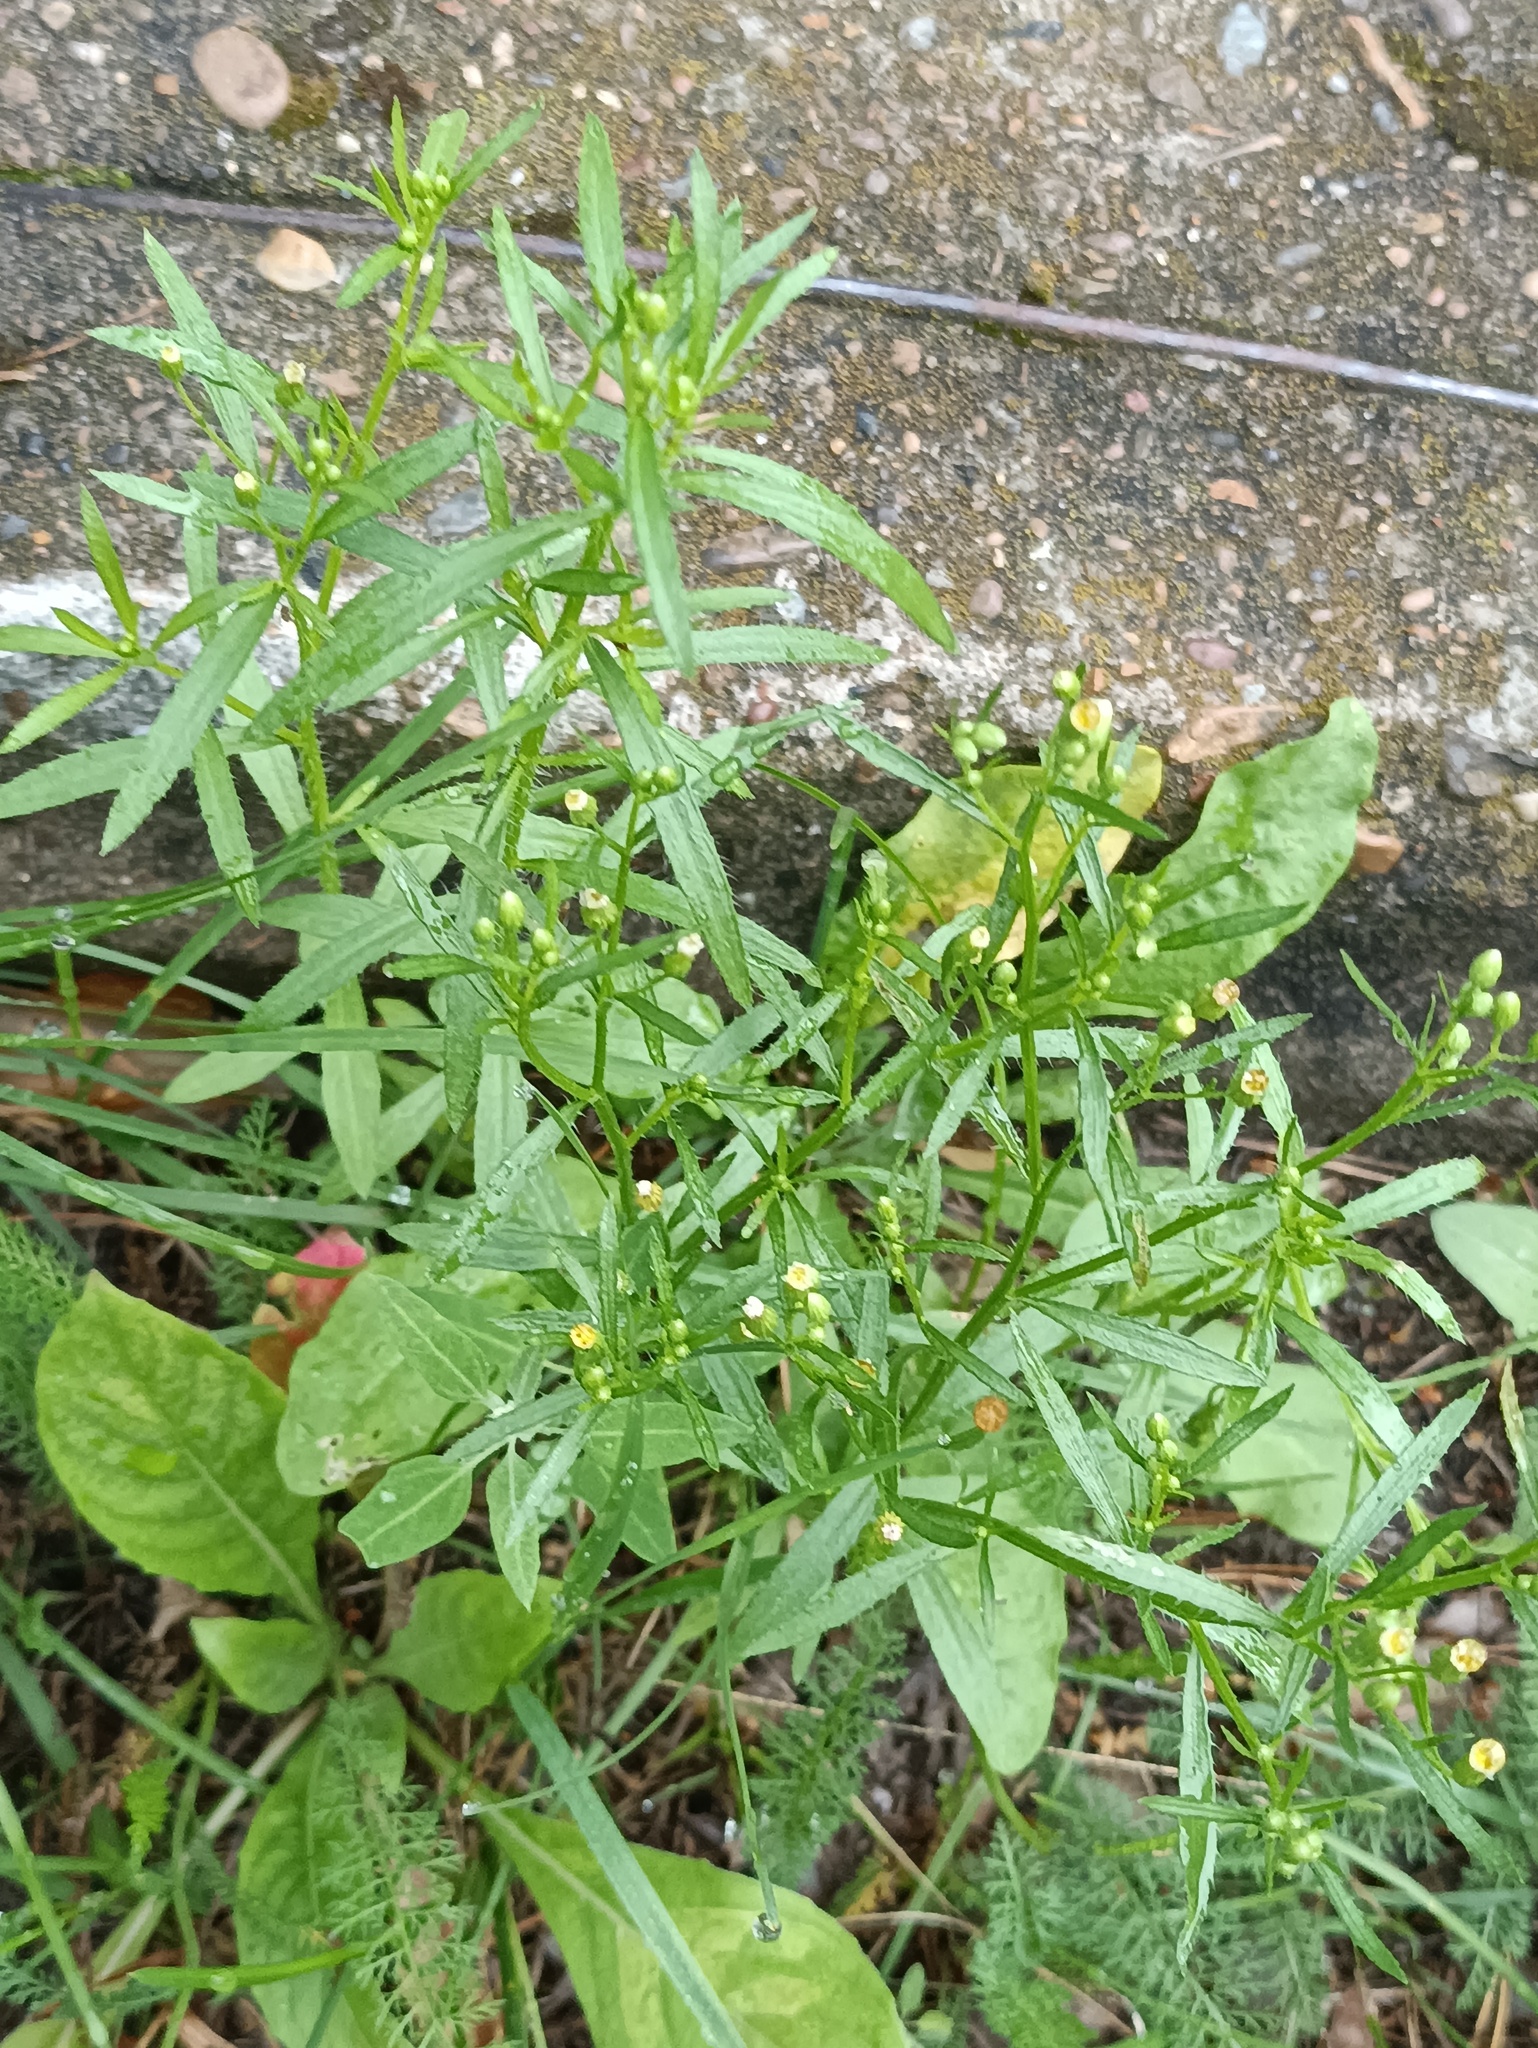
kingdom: Plantae
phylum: Tracheophyta
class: Magnoliopsida
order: Asterales
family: Asteraceae
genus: Erigeron
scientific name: Erigeron canadensis
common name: Canadian fleabane
